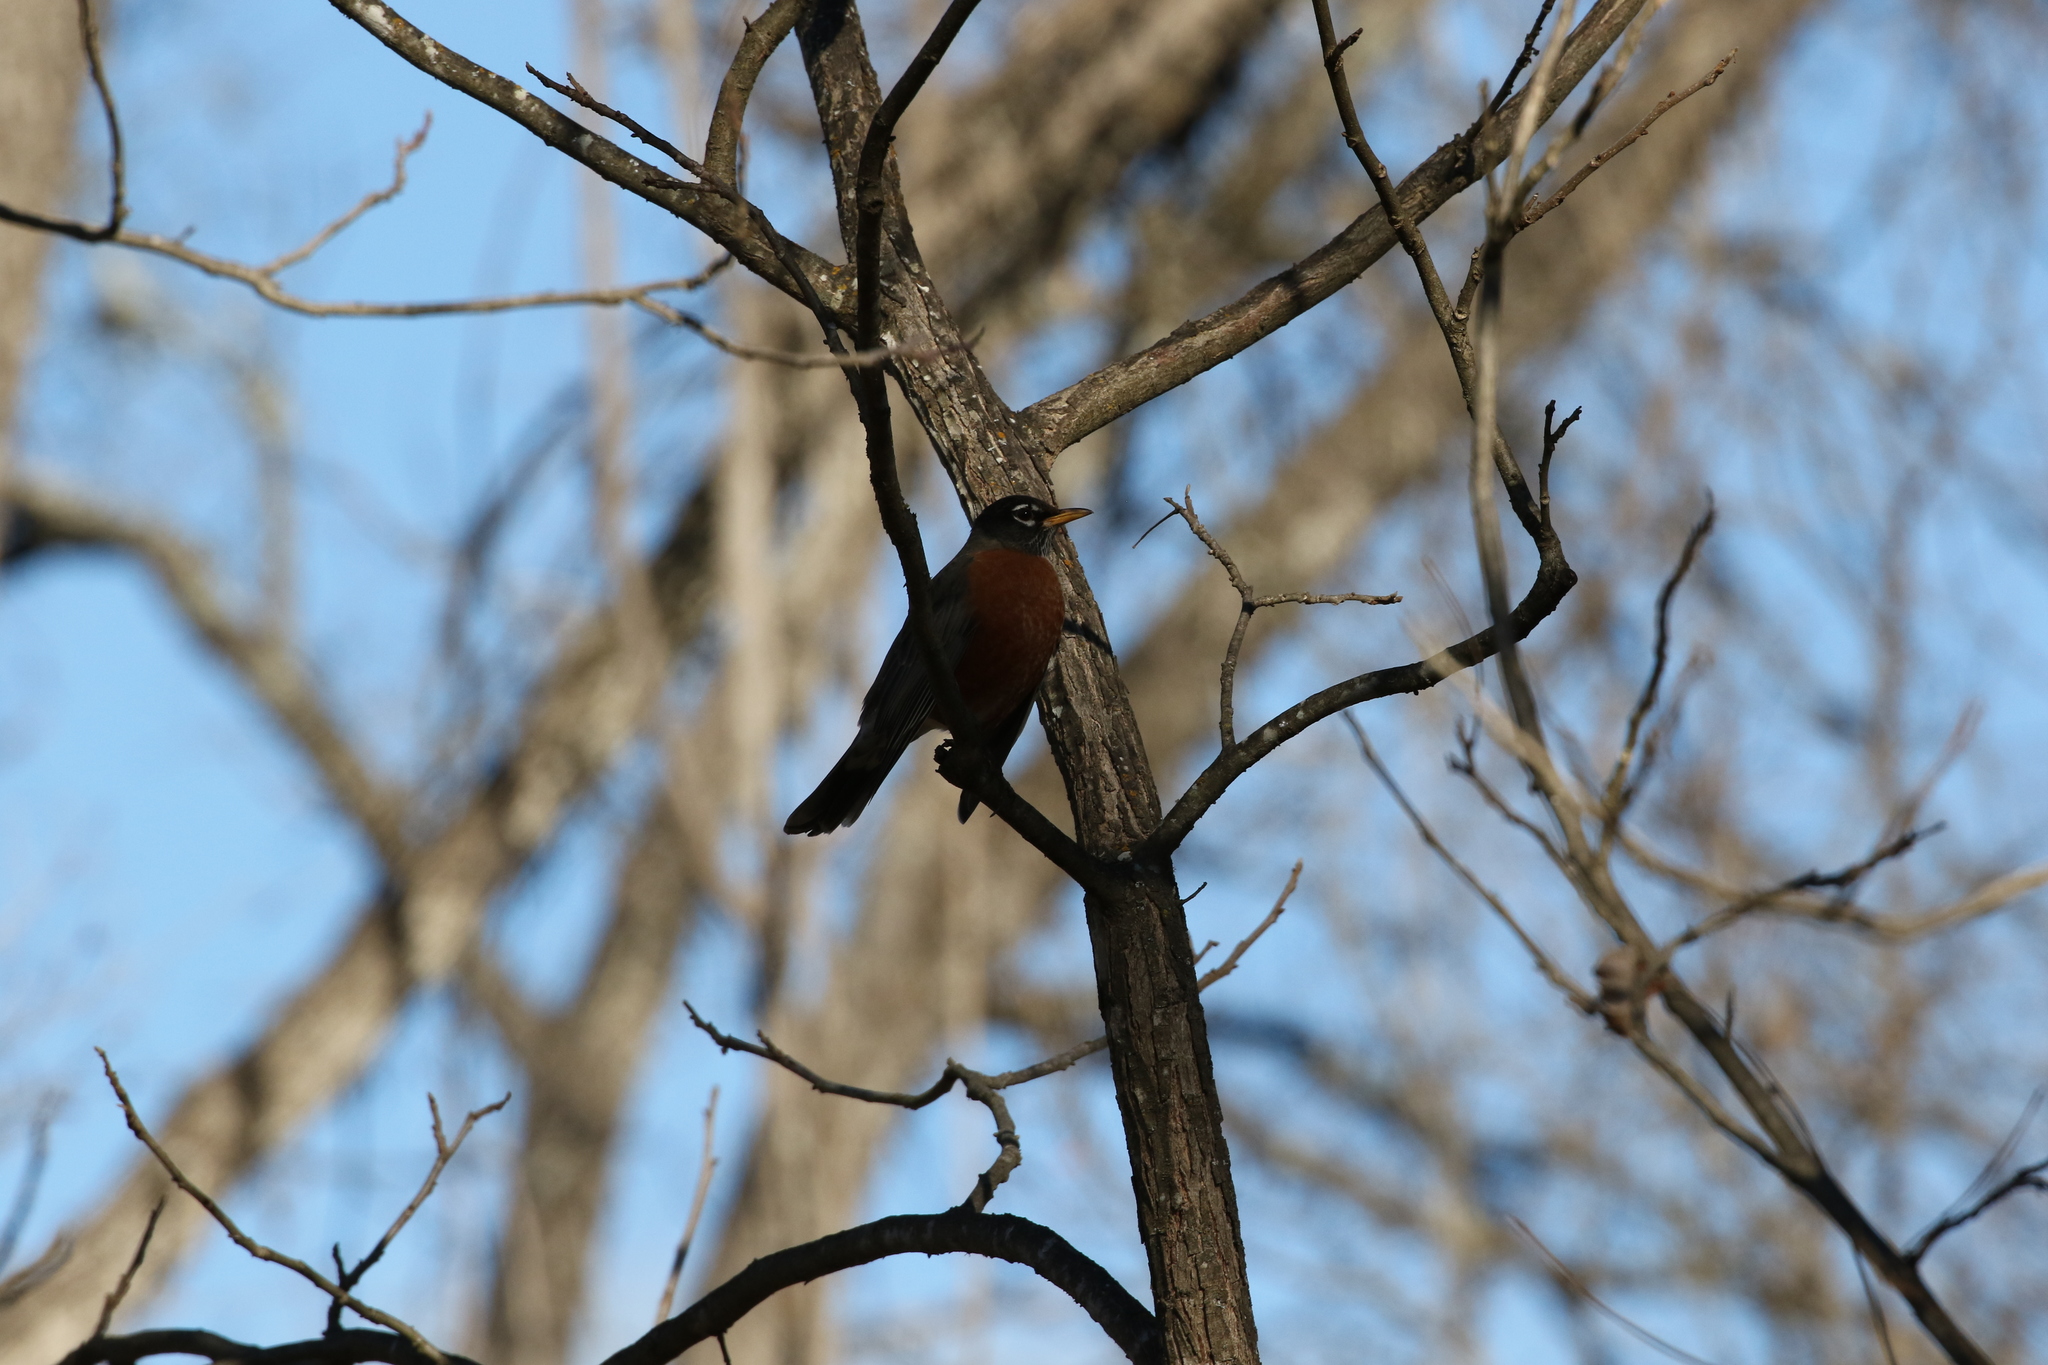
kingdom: Animalia
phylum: Chordata
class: Aves
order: Passeriformes
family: Turdidae
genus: Turdus
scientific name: Turdus migratorius
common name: American robin
